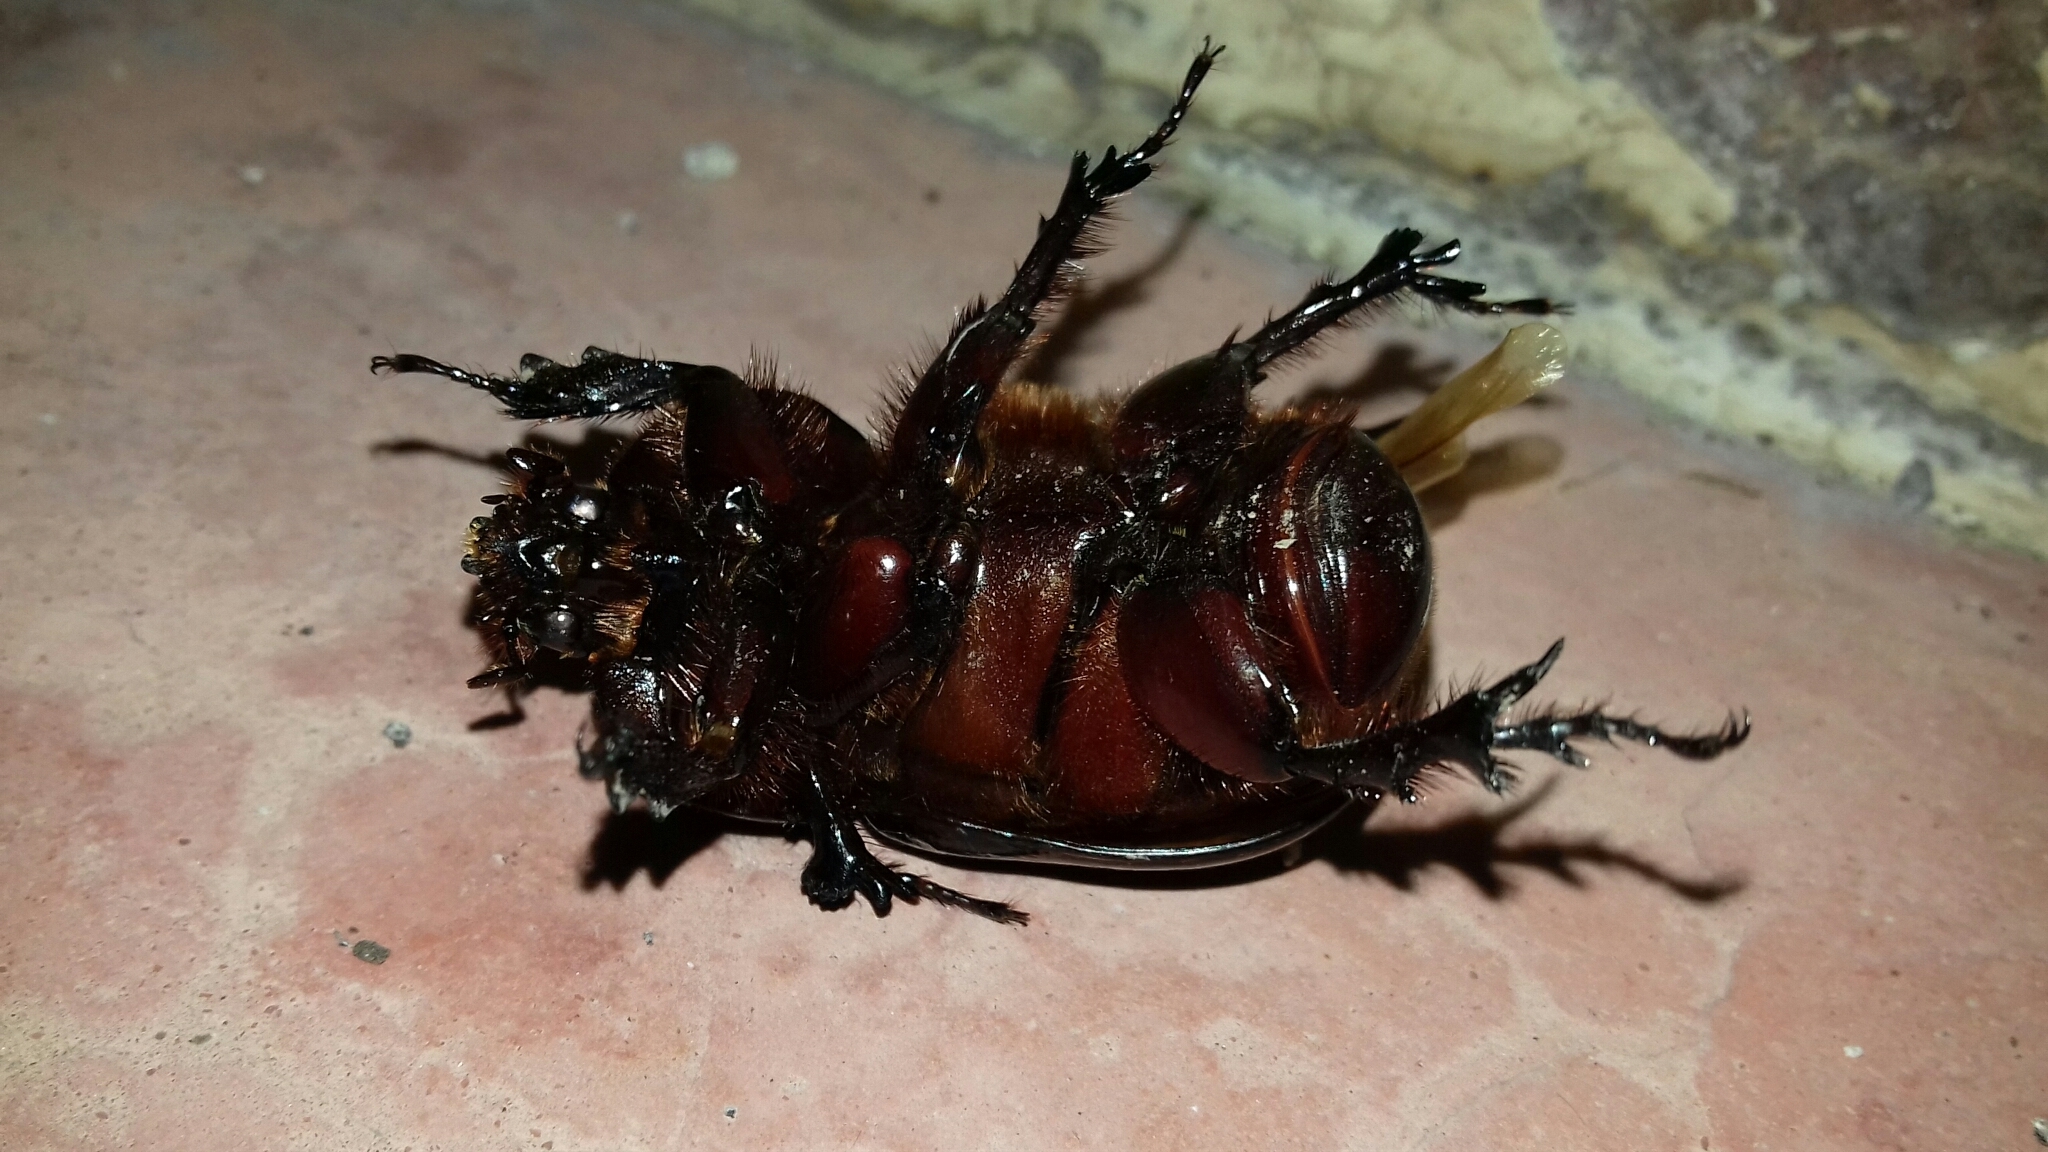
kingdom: Animalia
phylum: Arthropoda
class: Insecta
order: Coleoptera
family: Scarabaeidae
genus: Xyloryctes
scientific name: Xyloryctes thestalus
